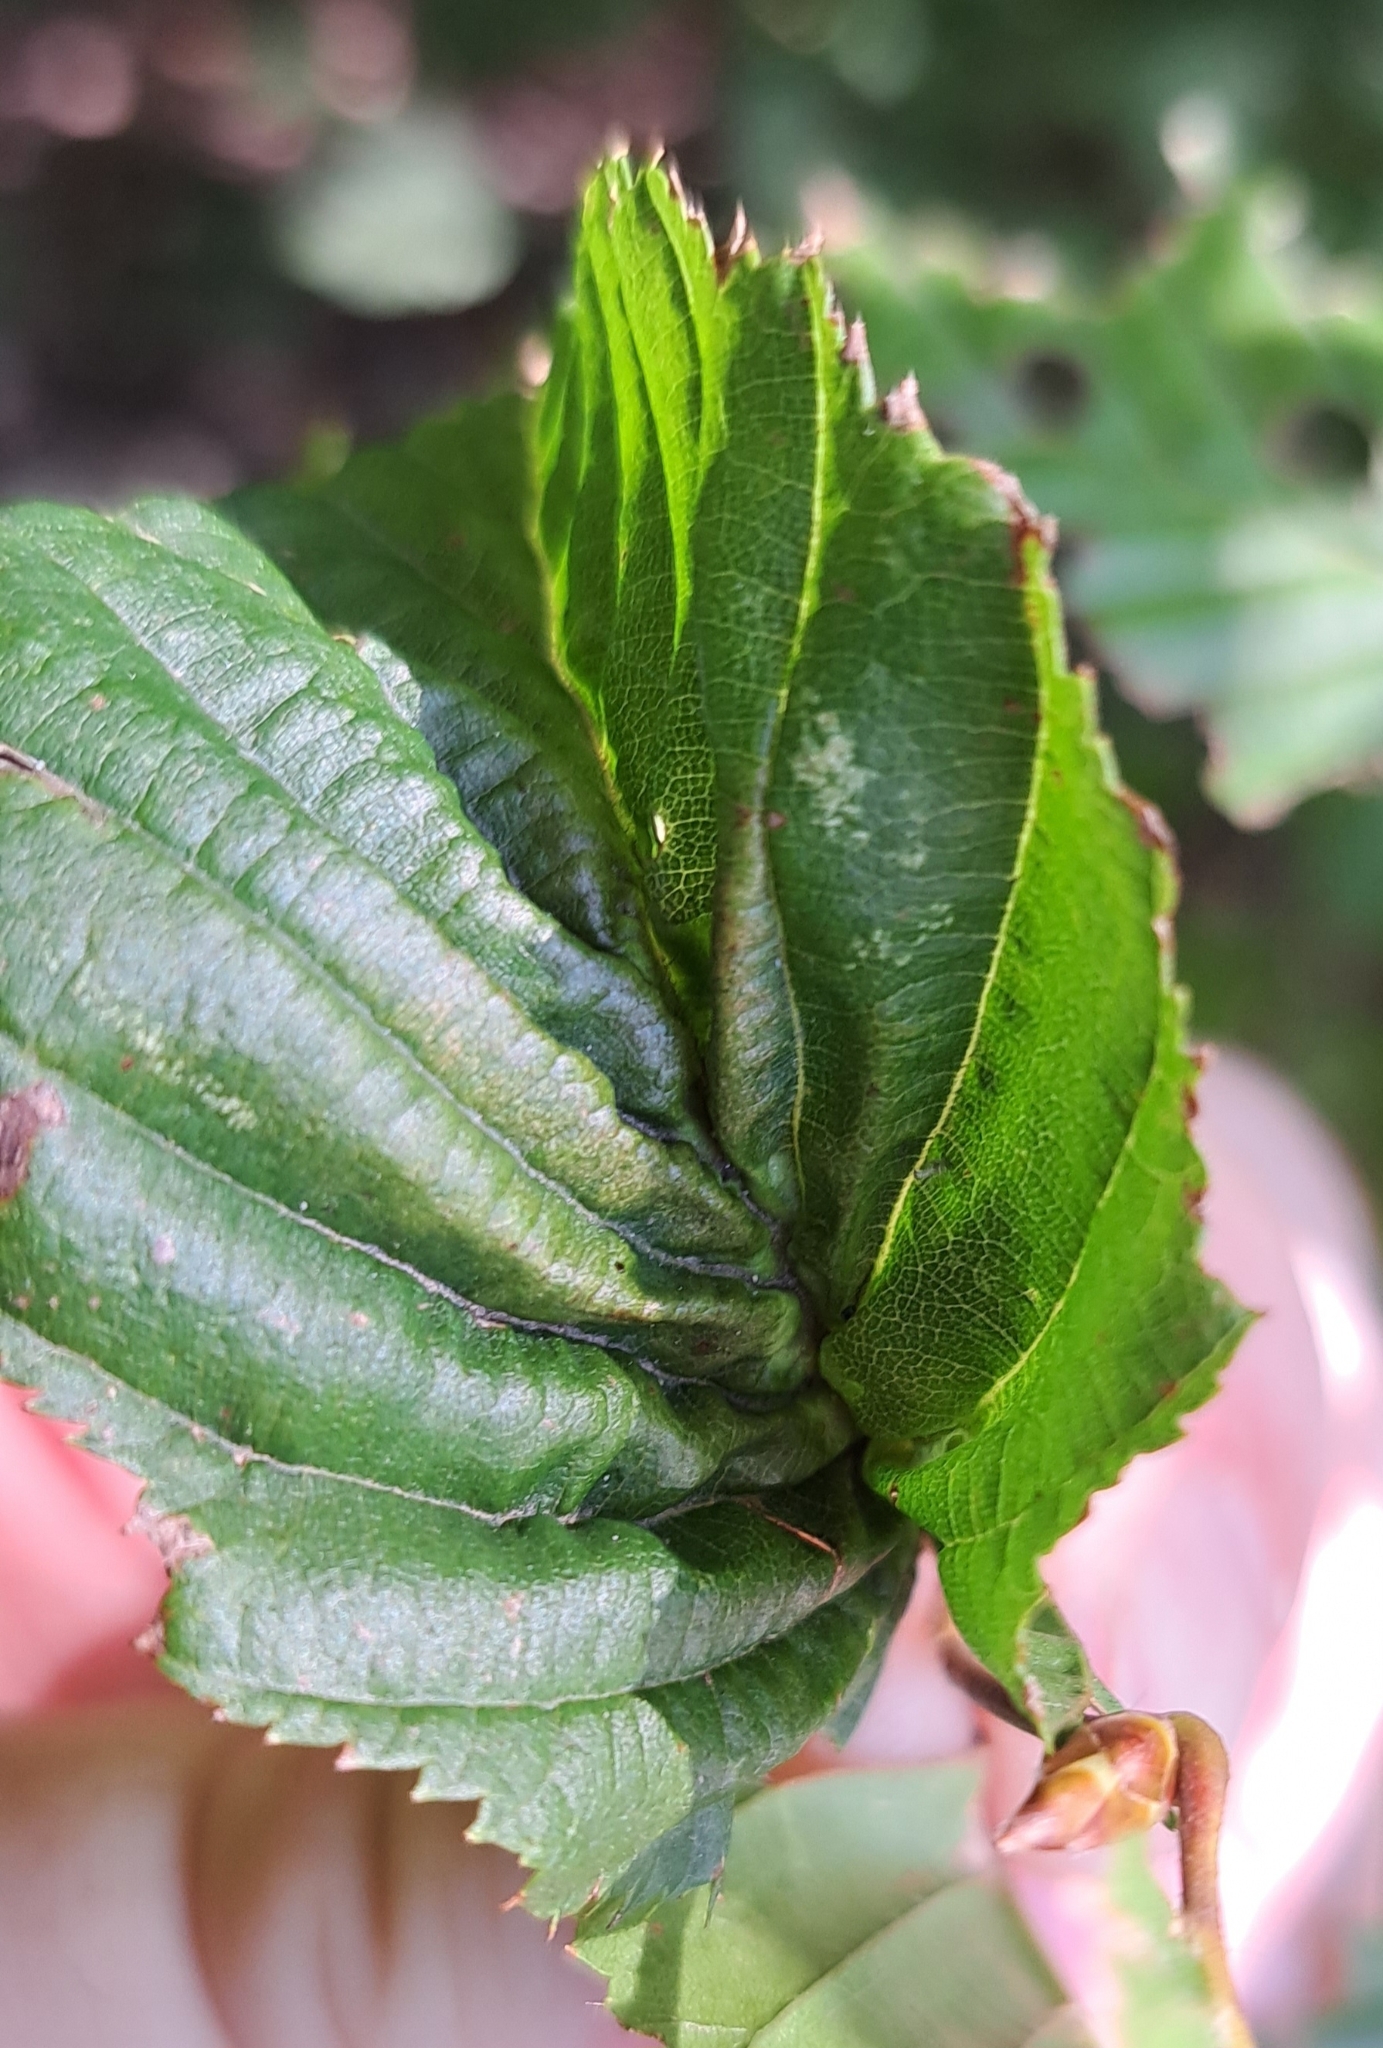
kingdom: Animalia
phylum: Arthropoda
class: Insecta
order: Diptera
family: Cecidomyiidae
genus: Zygiobia
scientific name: Zygiobia carpini
